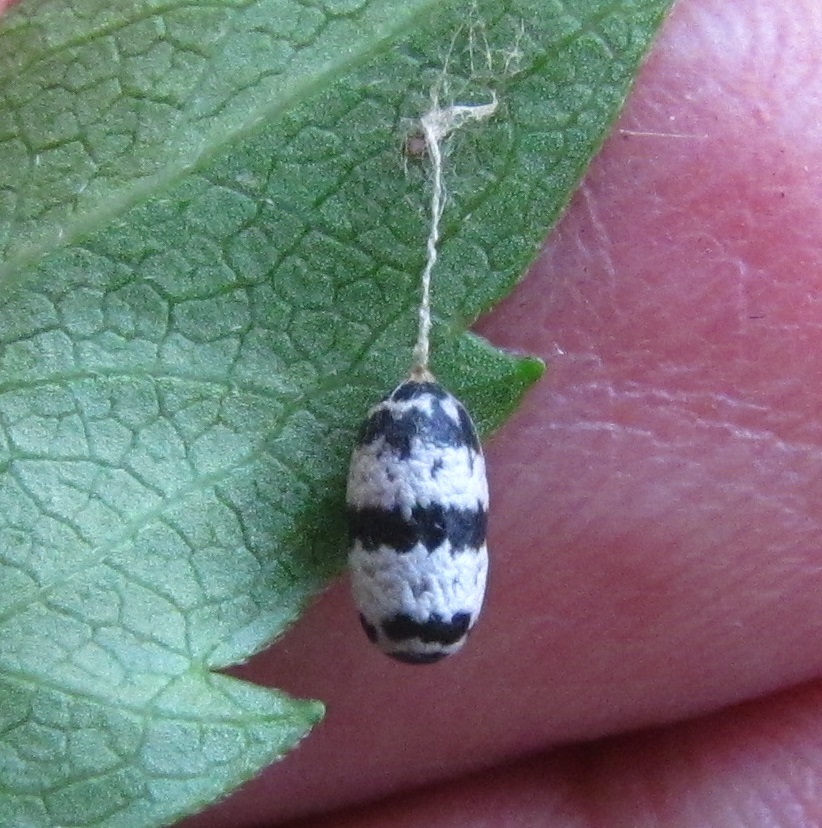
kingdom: Animalia
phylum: Arthropoda
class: Insecta
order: Hymenoptera
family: Ichneumonidae
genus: Charops
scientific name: Charops annulipes
